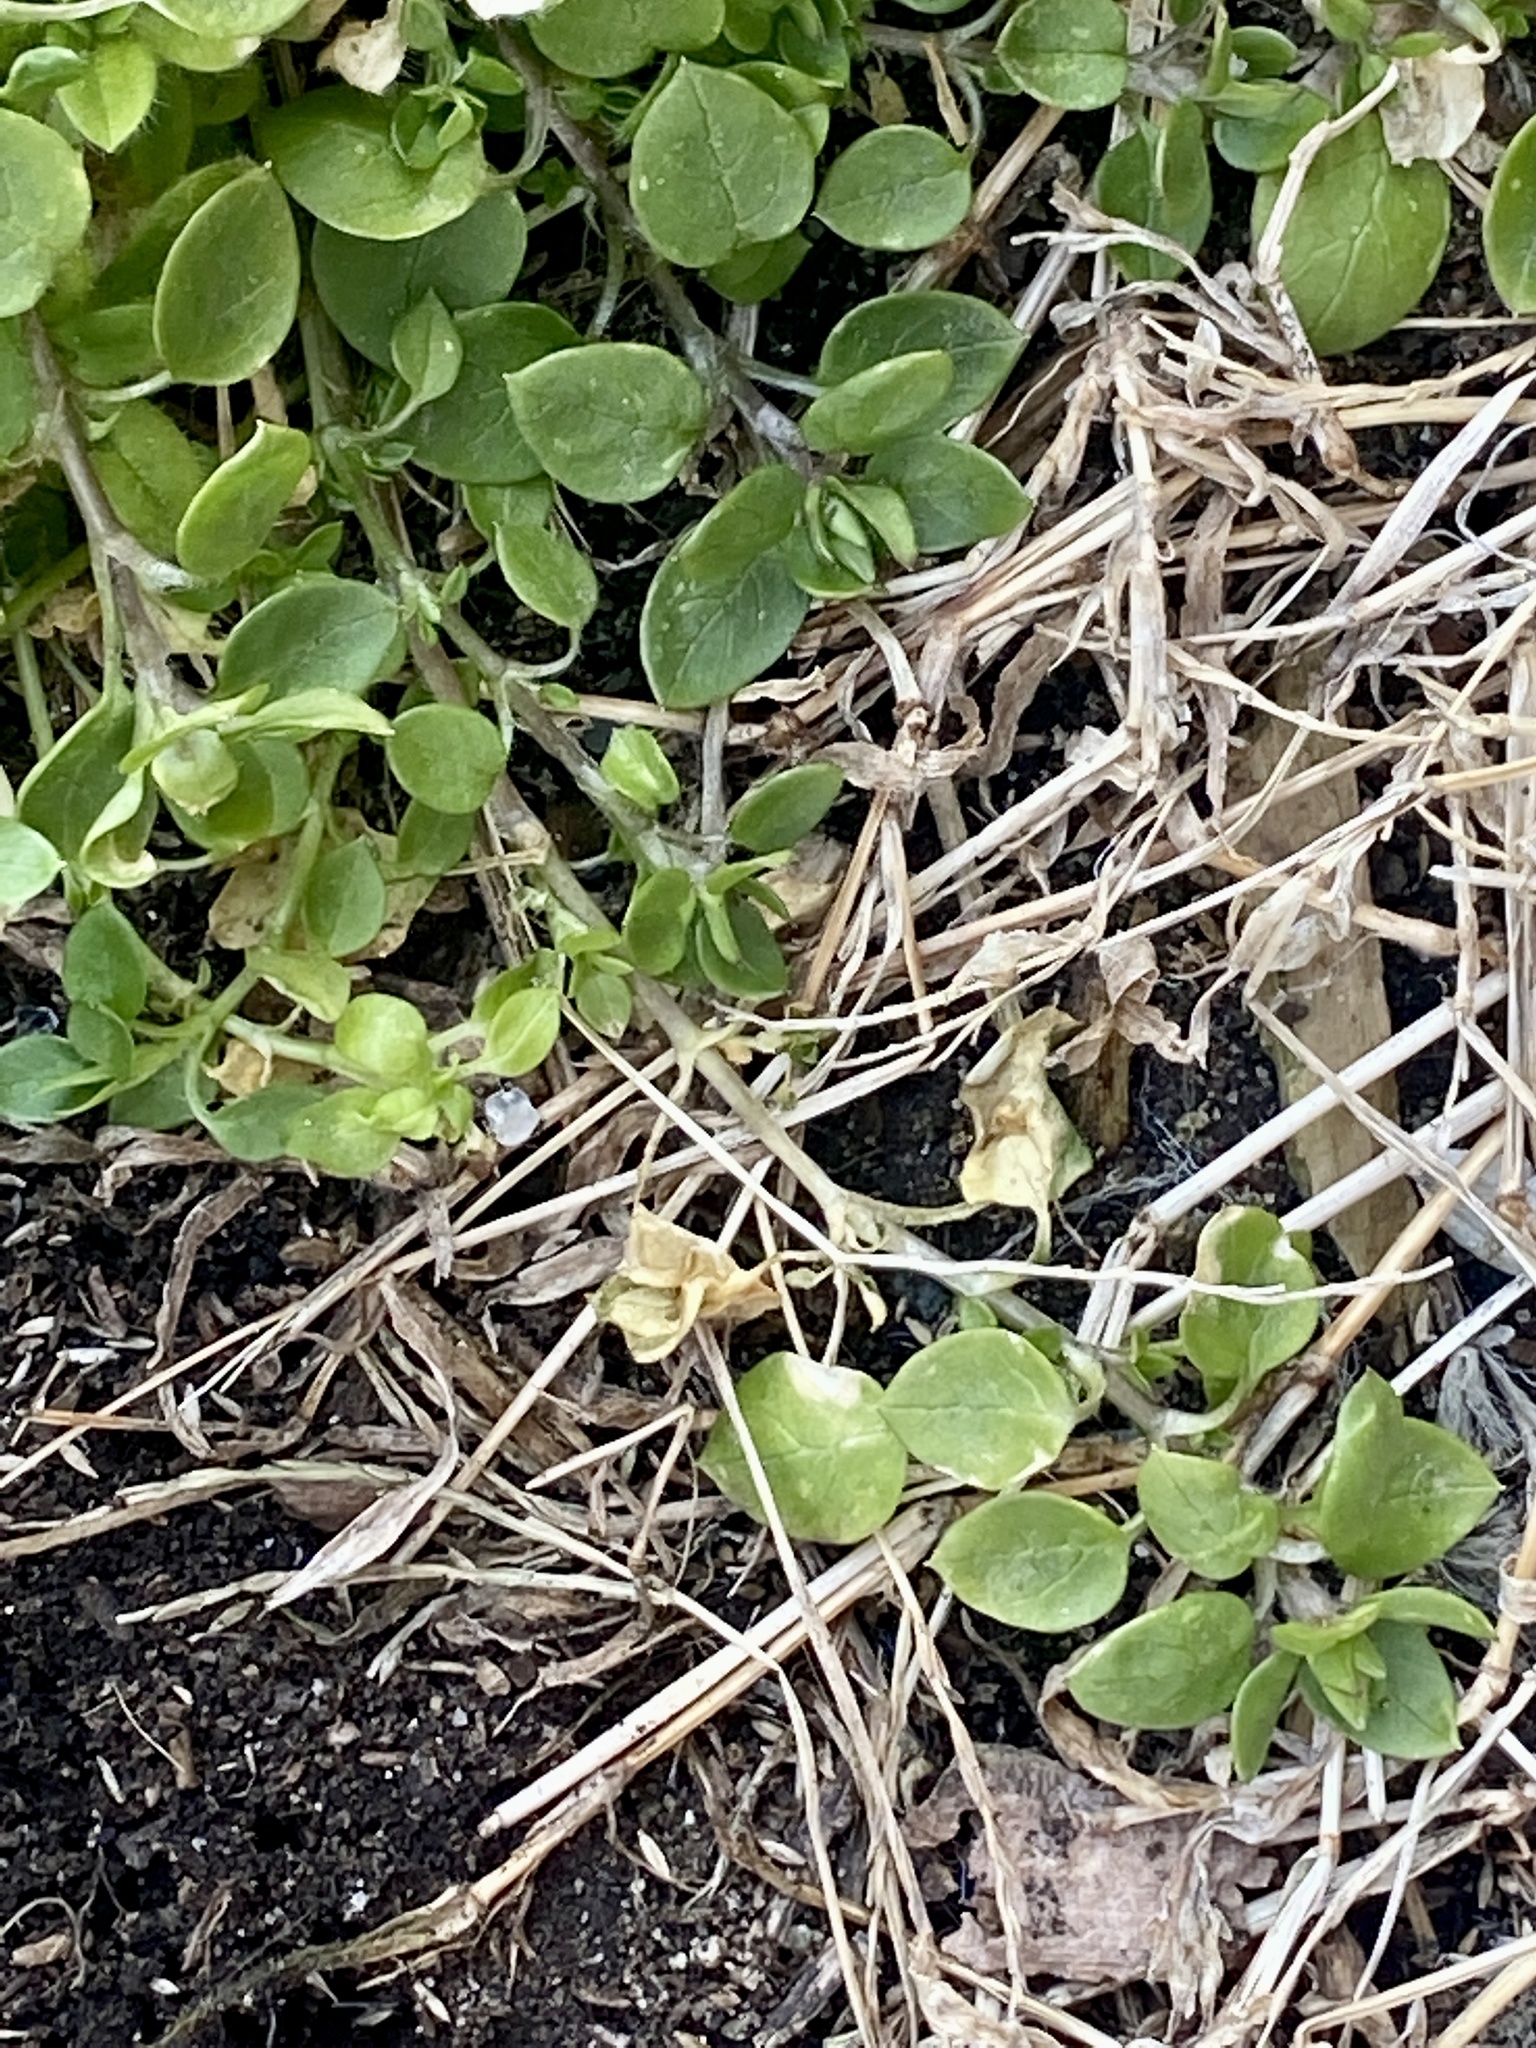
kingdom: Plantae
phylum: Tracheophyta
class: Magnoliopsida
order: Caryophyllales
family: Caryophyllaceae
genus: Stellaria
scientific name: Stellaria media
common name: Common chickweed
